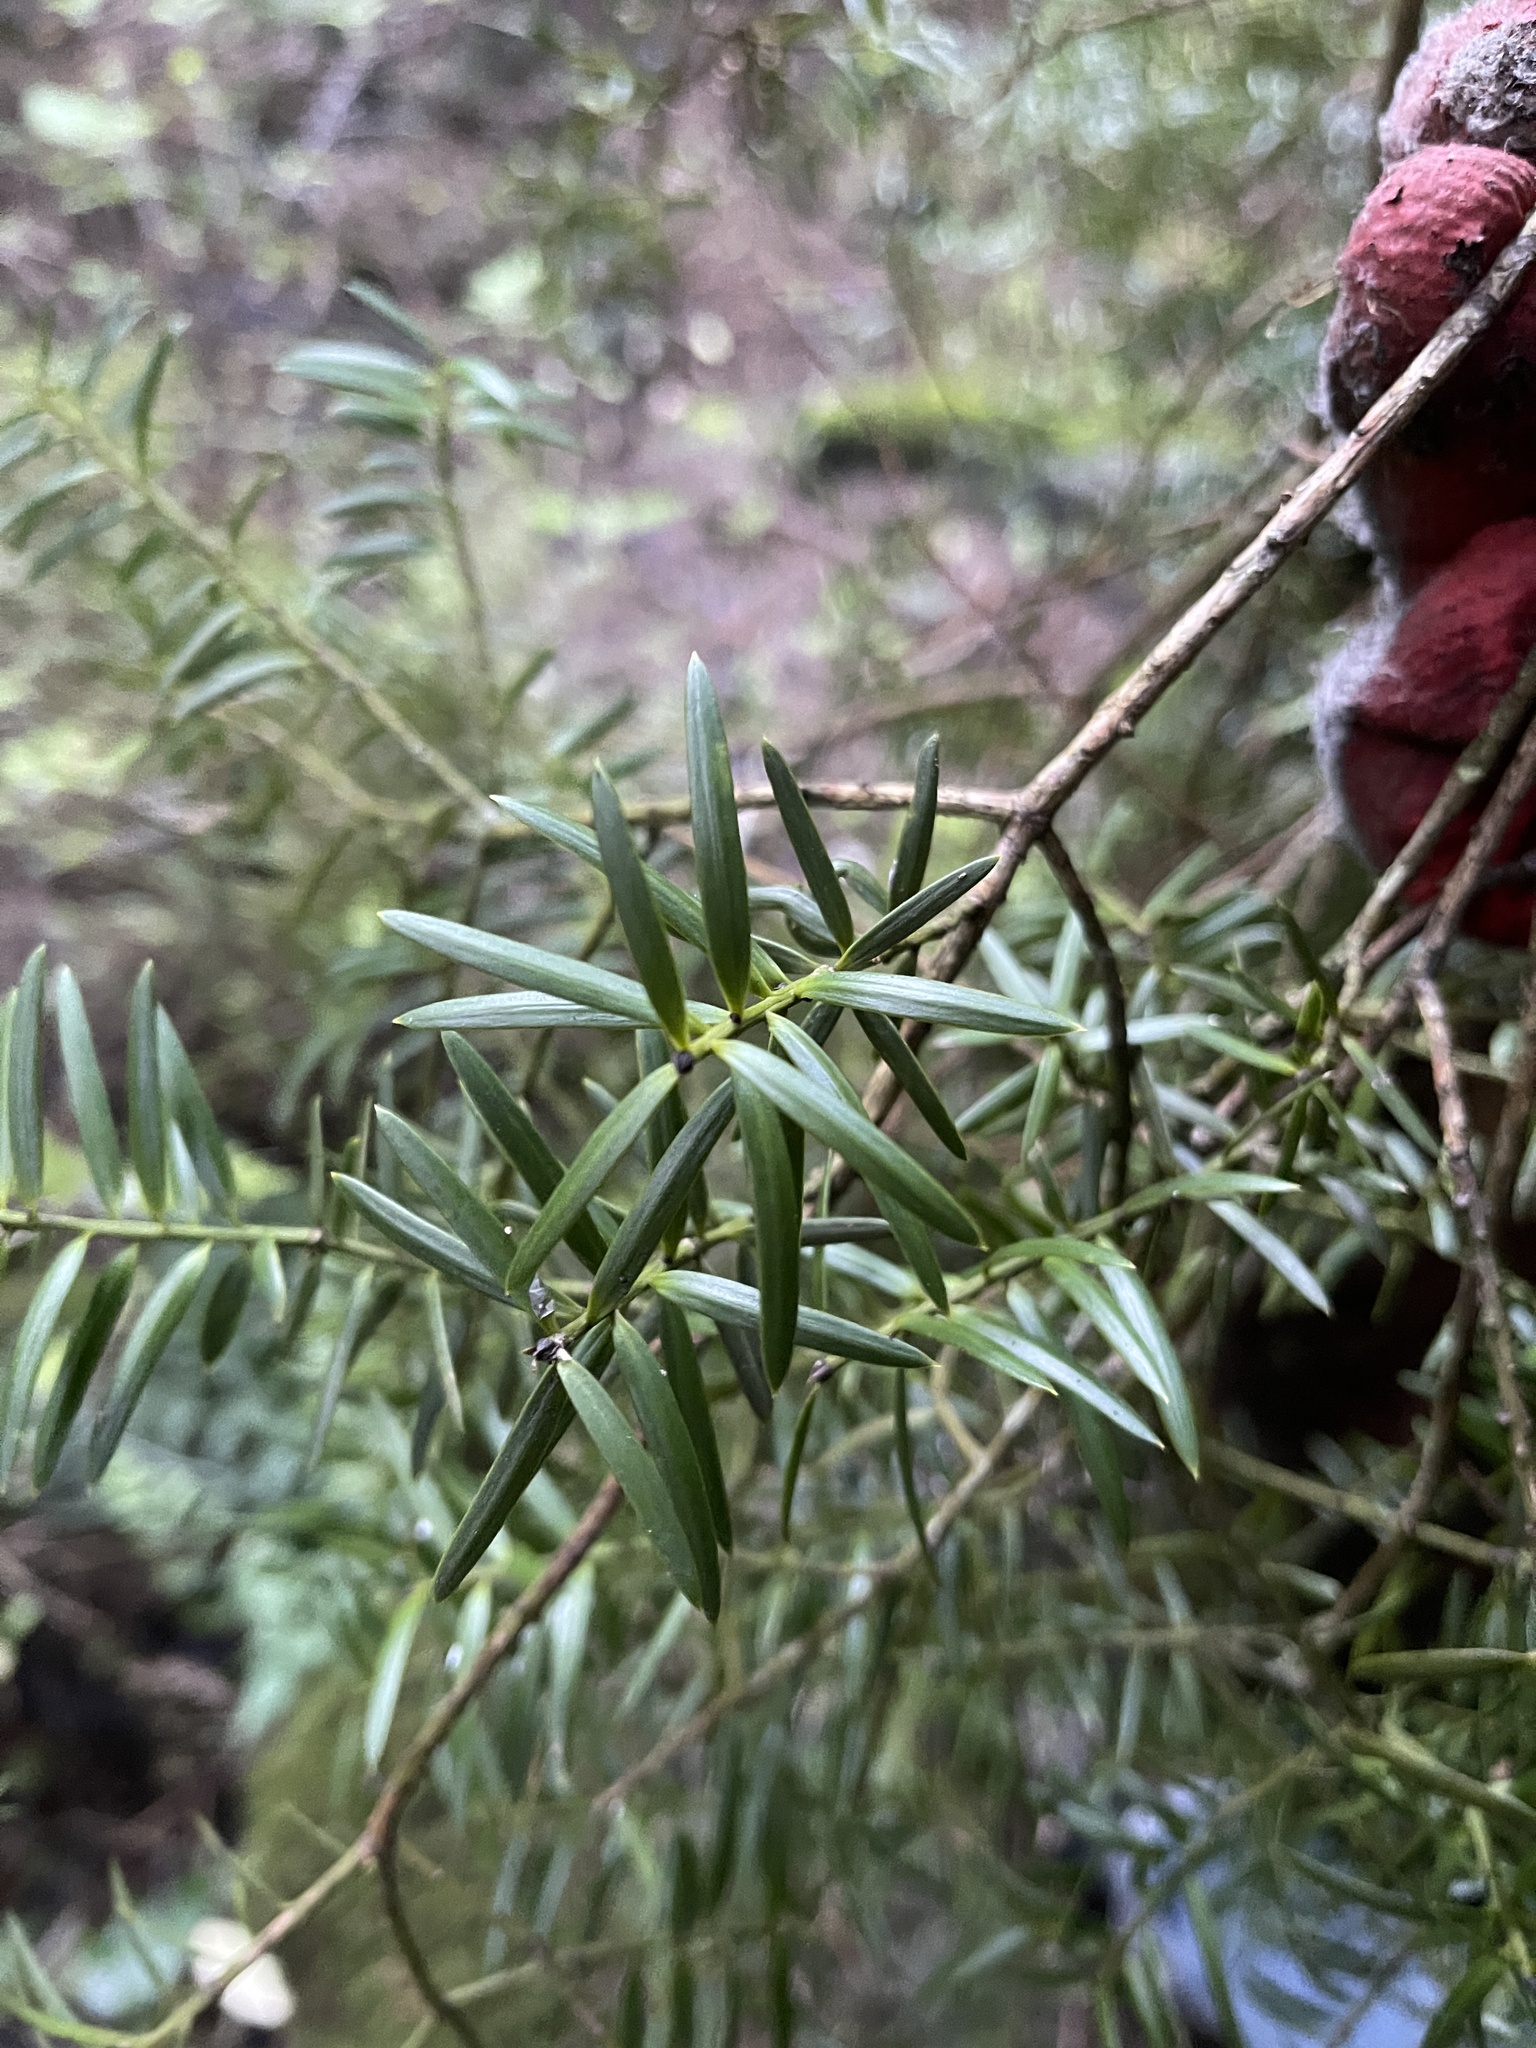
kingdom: Plantae
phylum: Tracheophyta
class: Pinopsida
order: Pinales
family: Podocarpaceae
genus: Podocarpus
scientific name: Podocarpus totara
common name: Totara
